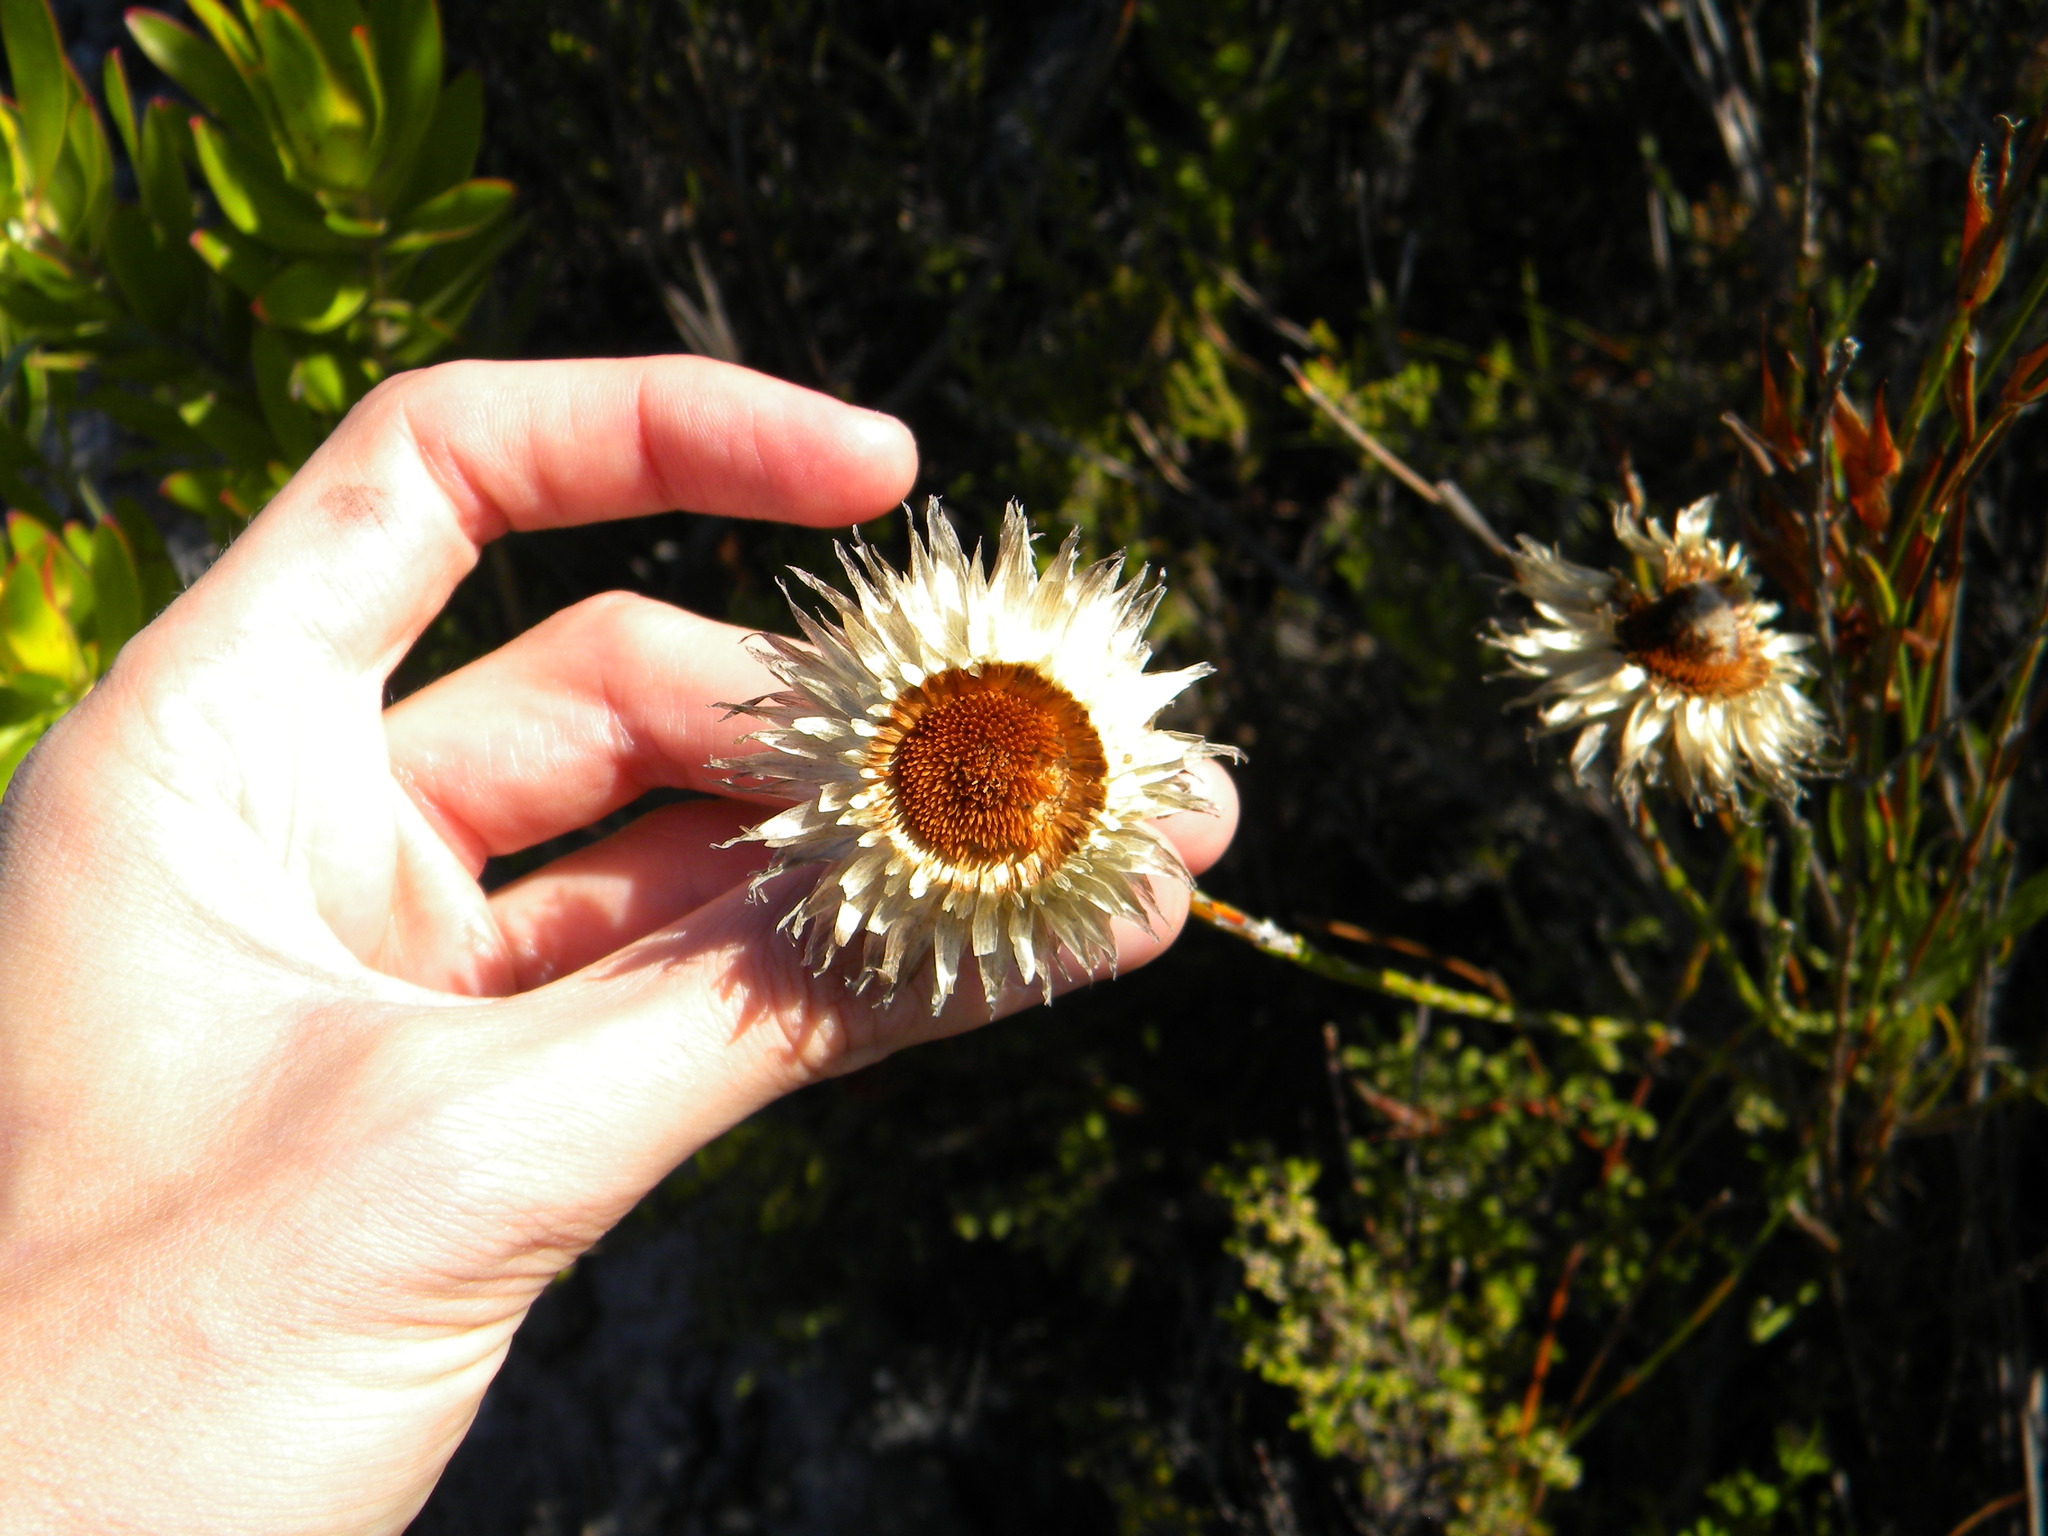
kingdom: Plantae
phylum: Tracheophyta
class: Magnoliopsida
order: Asterales
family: Asteraceae
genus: Edmondia
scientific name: Edmondia sesamoides
